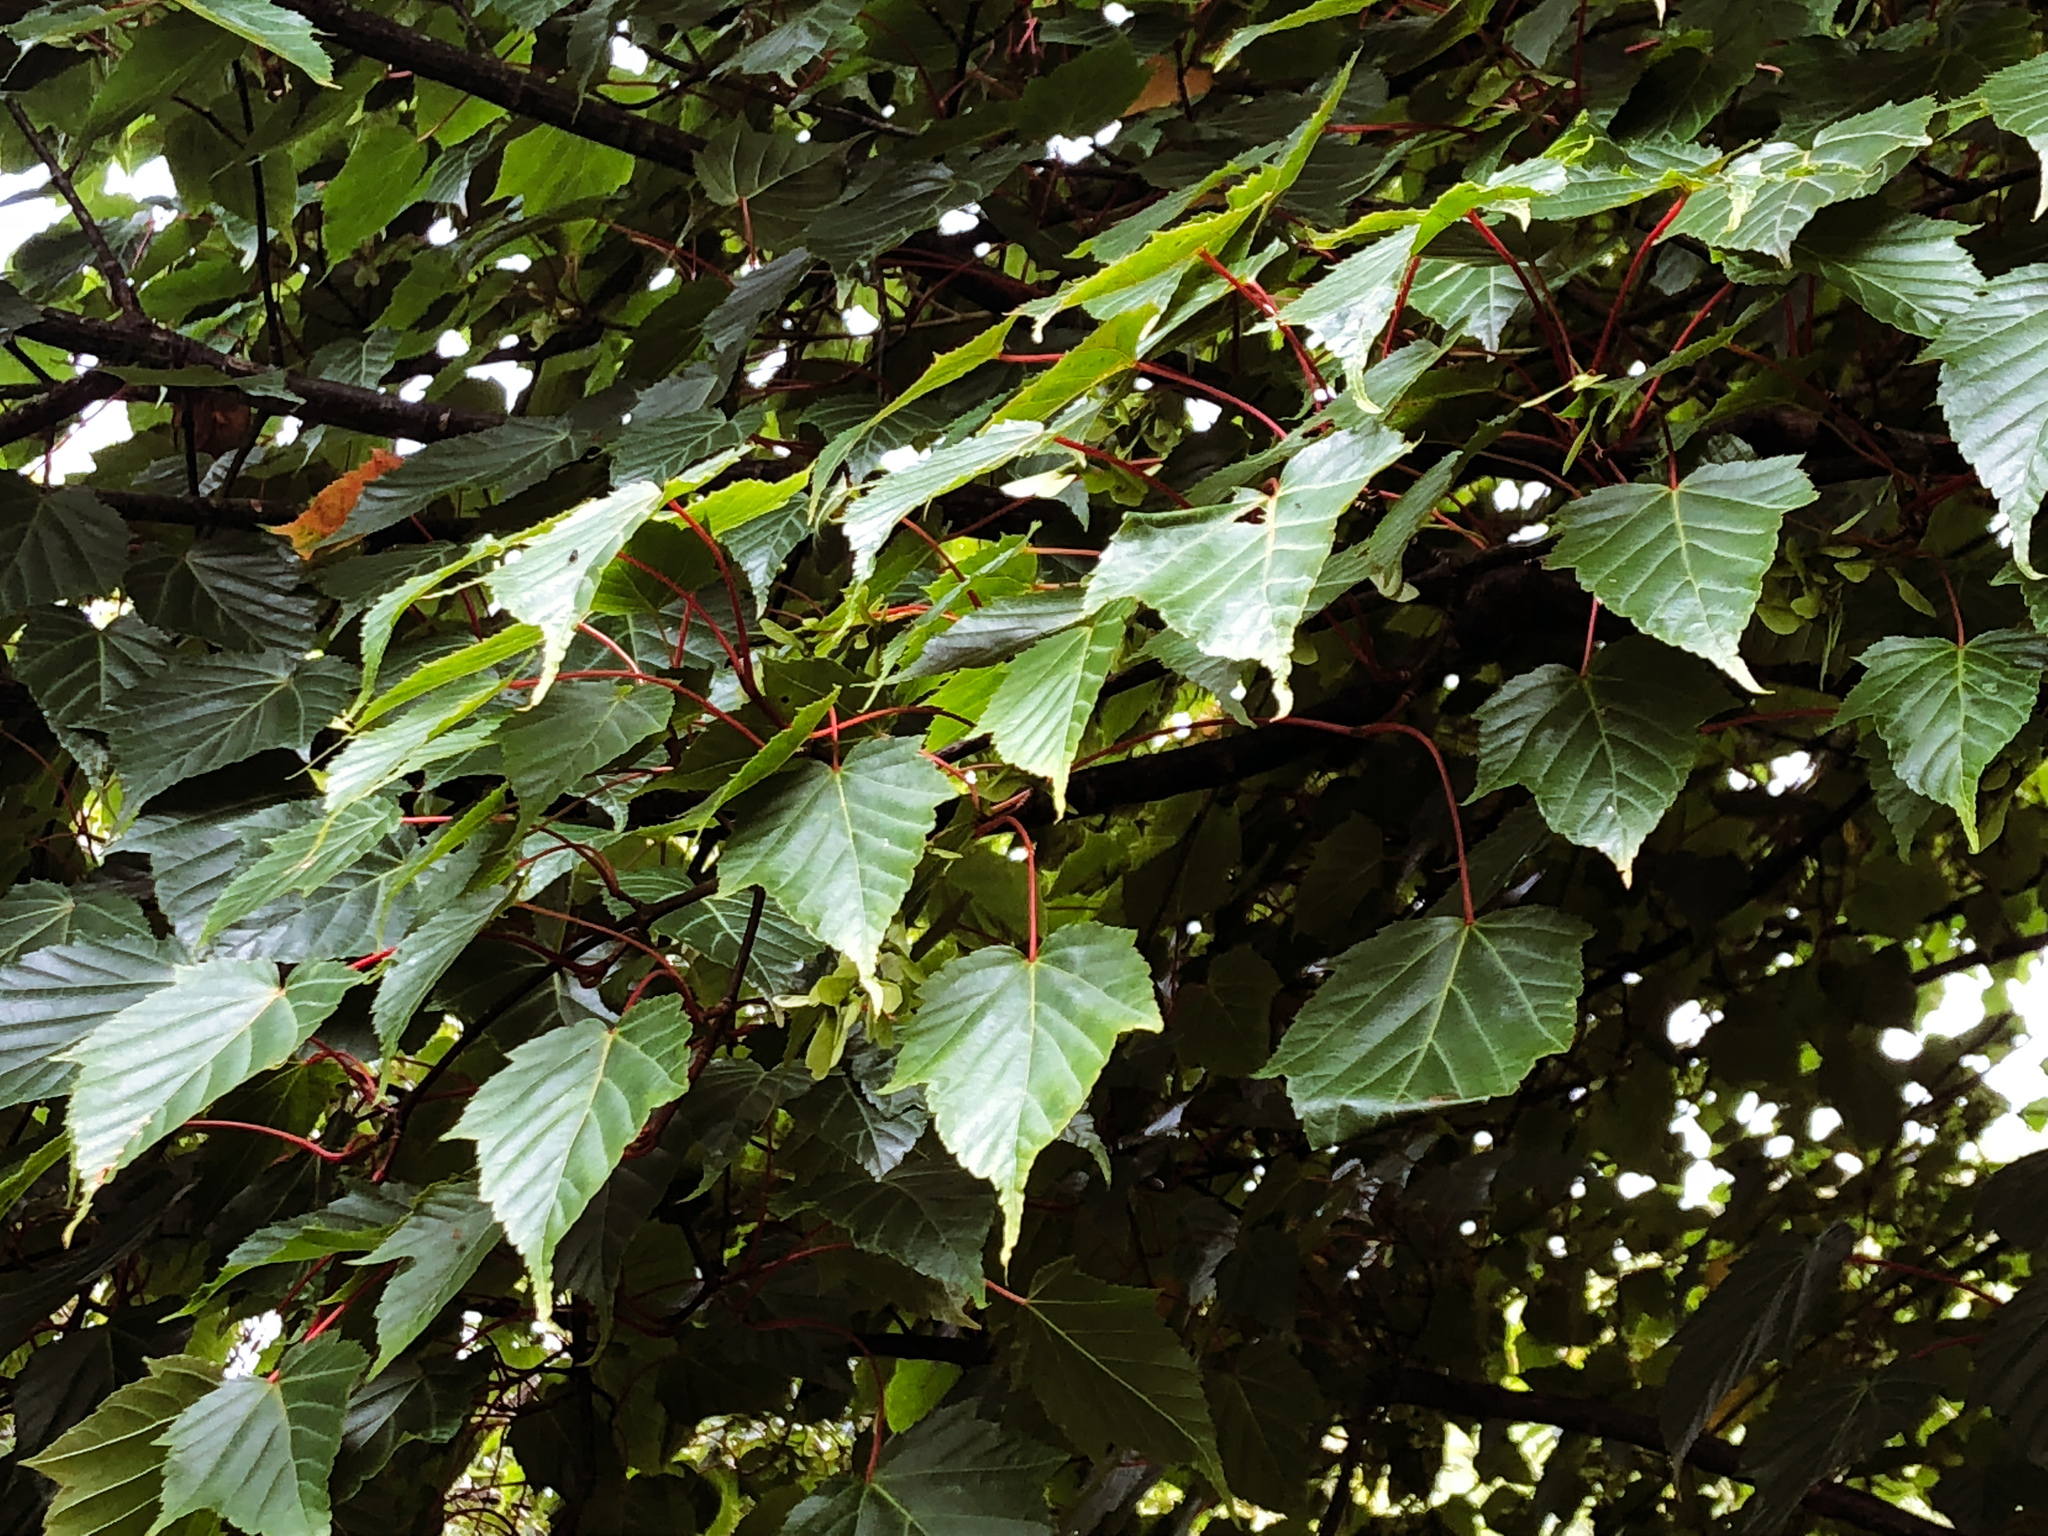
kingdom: Plantae
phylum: Tracheophyta
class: Magnoliopsida
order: Sapindales
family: Sapindaceae
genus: Acer
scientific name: Acer caudatifolium
